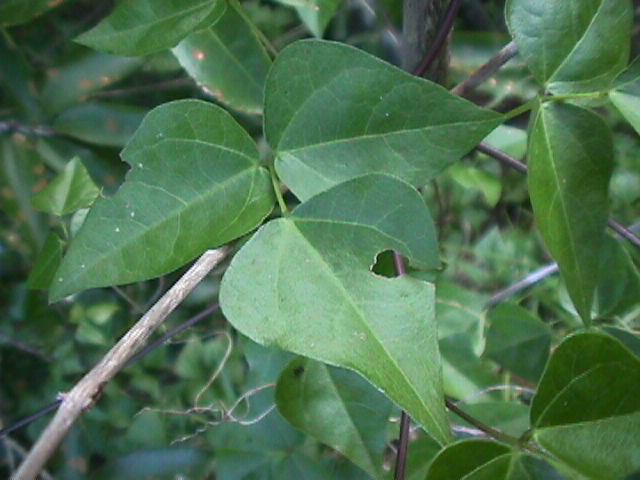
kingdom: Plantae
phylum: Tracheophyta
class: Magnoliopsida
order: Fabales
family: Fabaceae
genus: Dipogon
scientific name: Dipogon lignosus
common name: Okie bean
